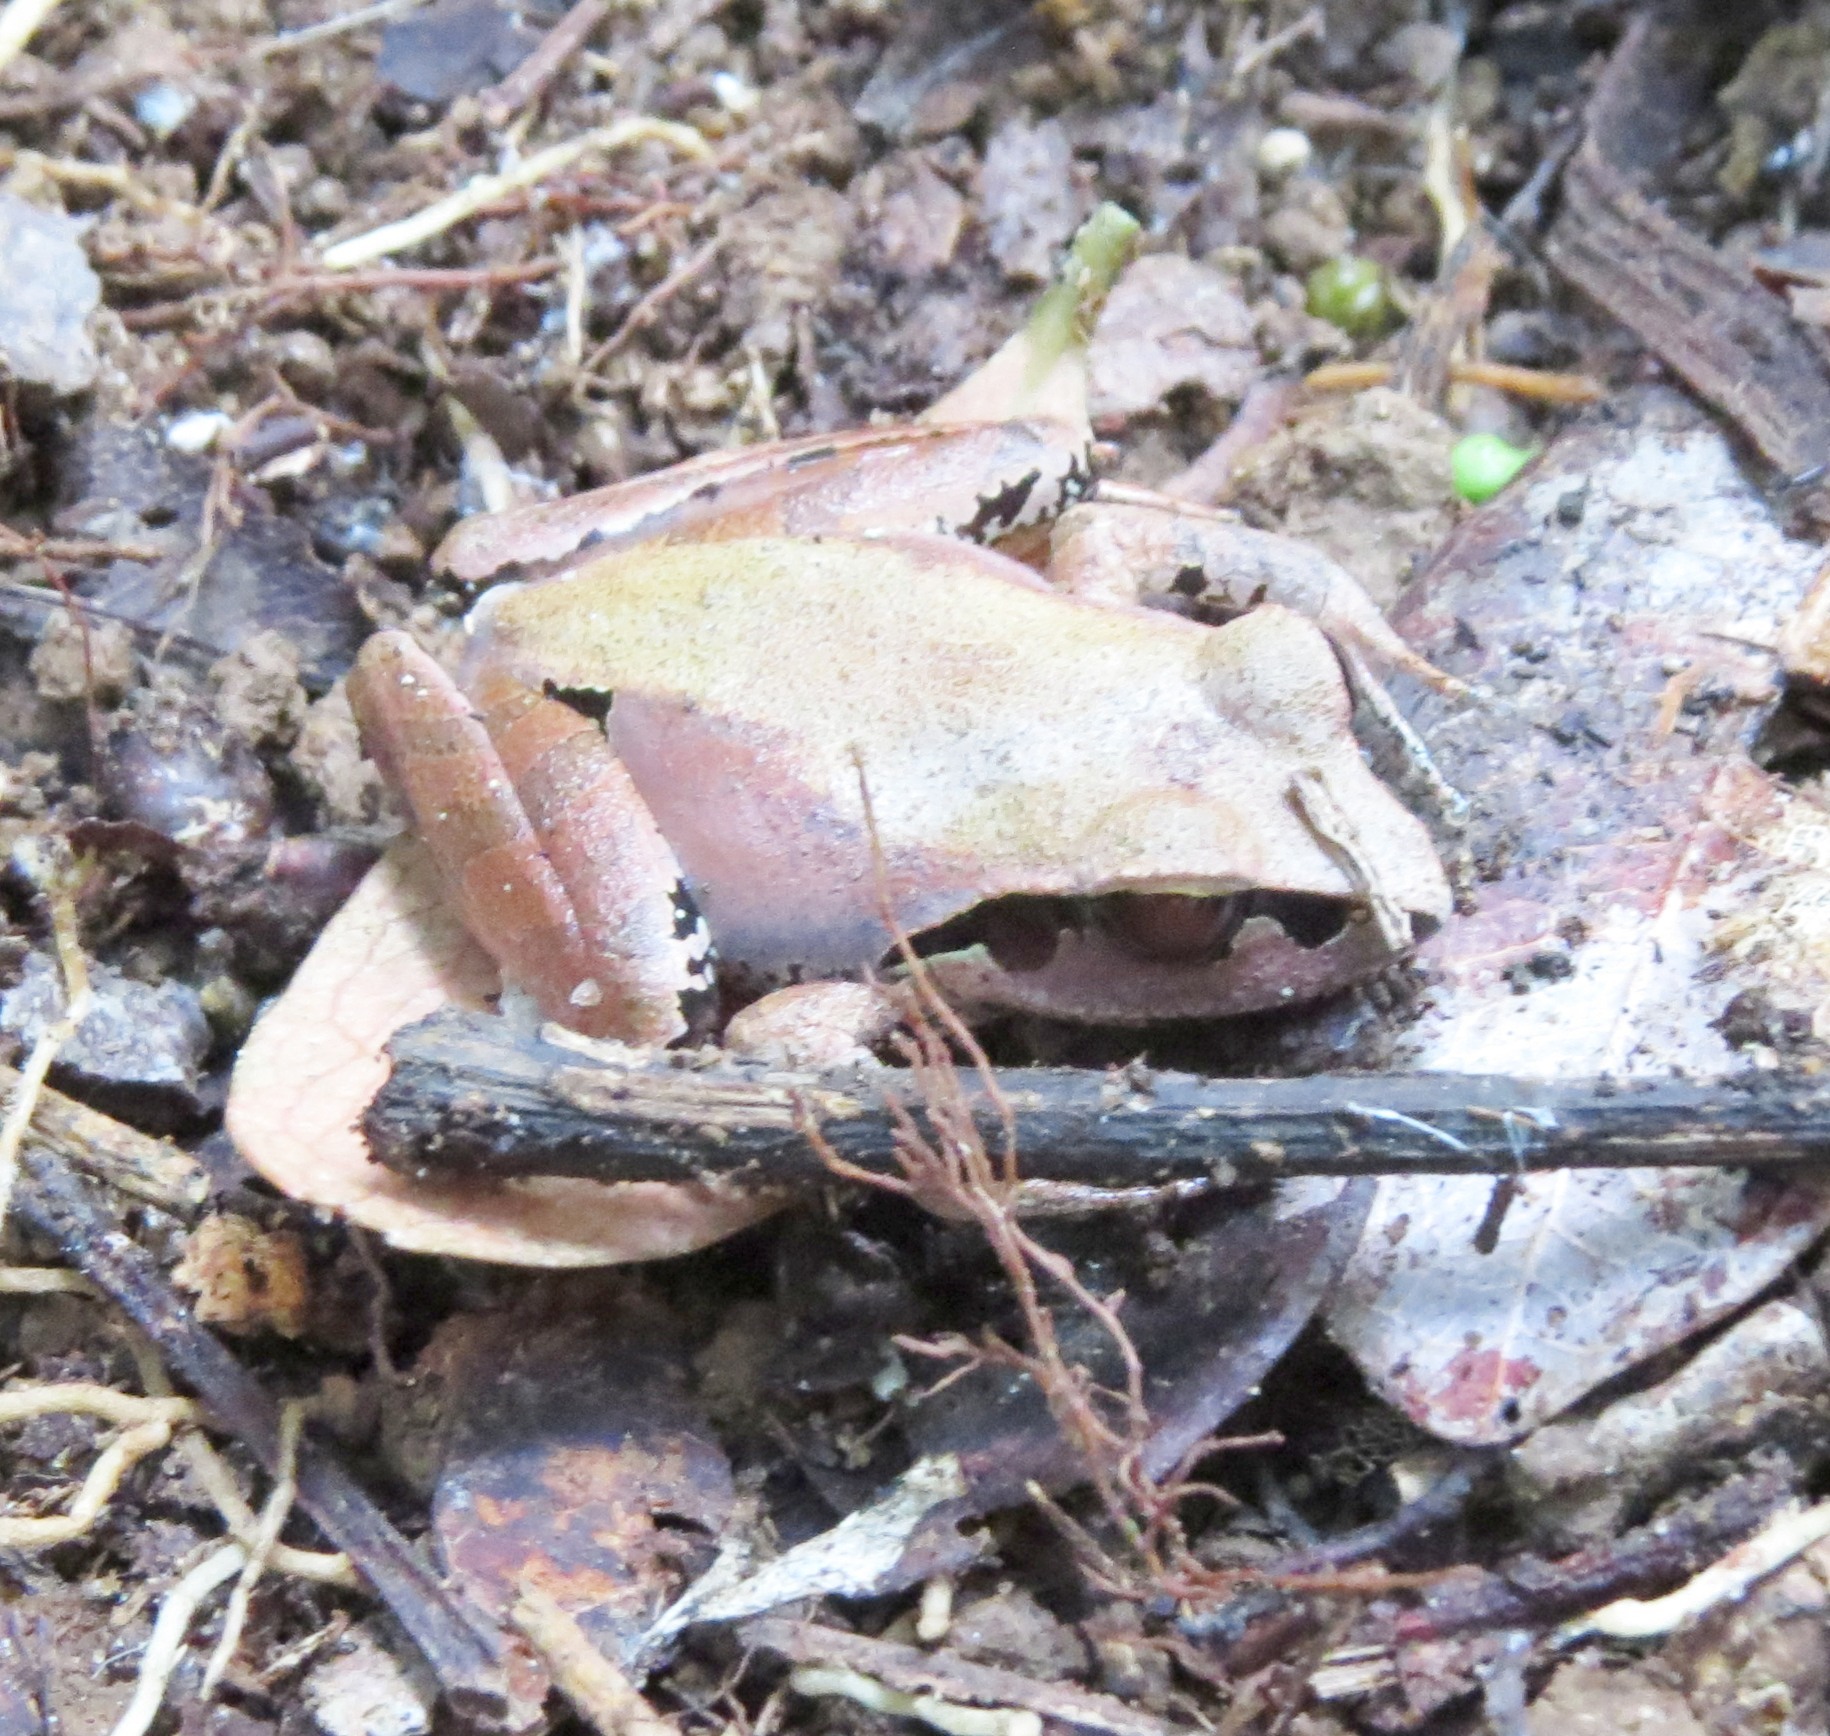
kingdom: Animalia
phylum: Chordata
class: Amphibia
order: Anura
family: Mantellidae
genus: Aglyptodactylus
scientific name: Aglyptodactylus madagascariensis
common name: Madagascar jumping frog
